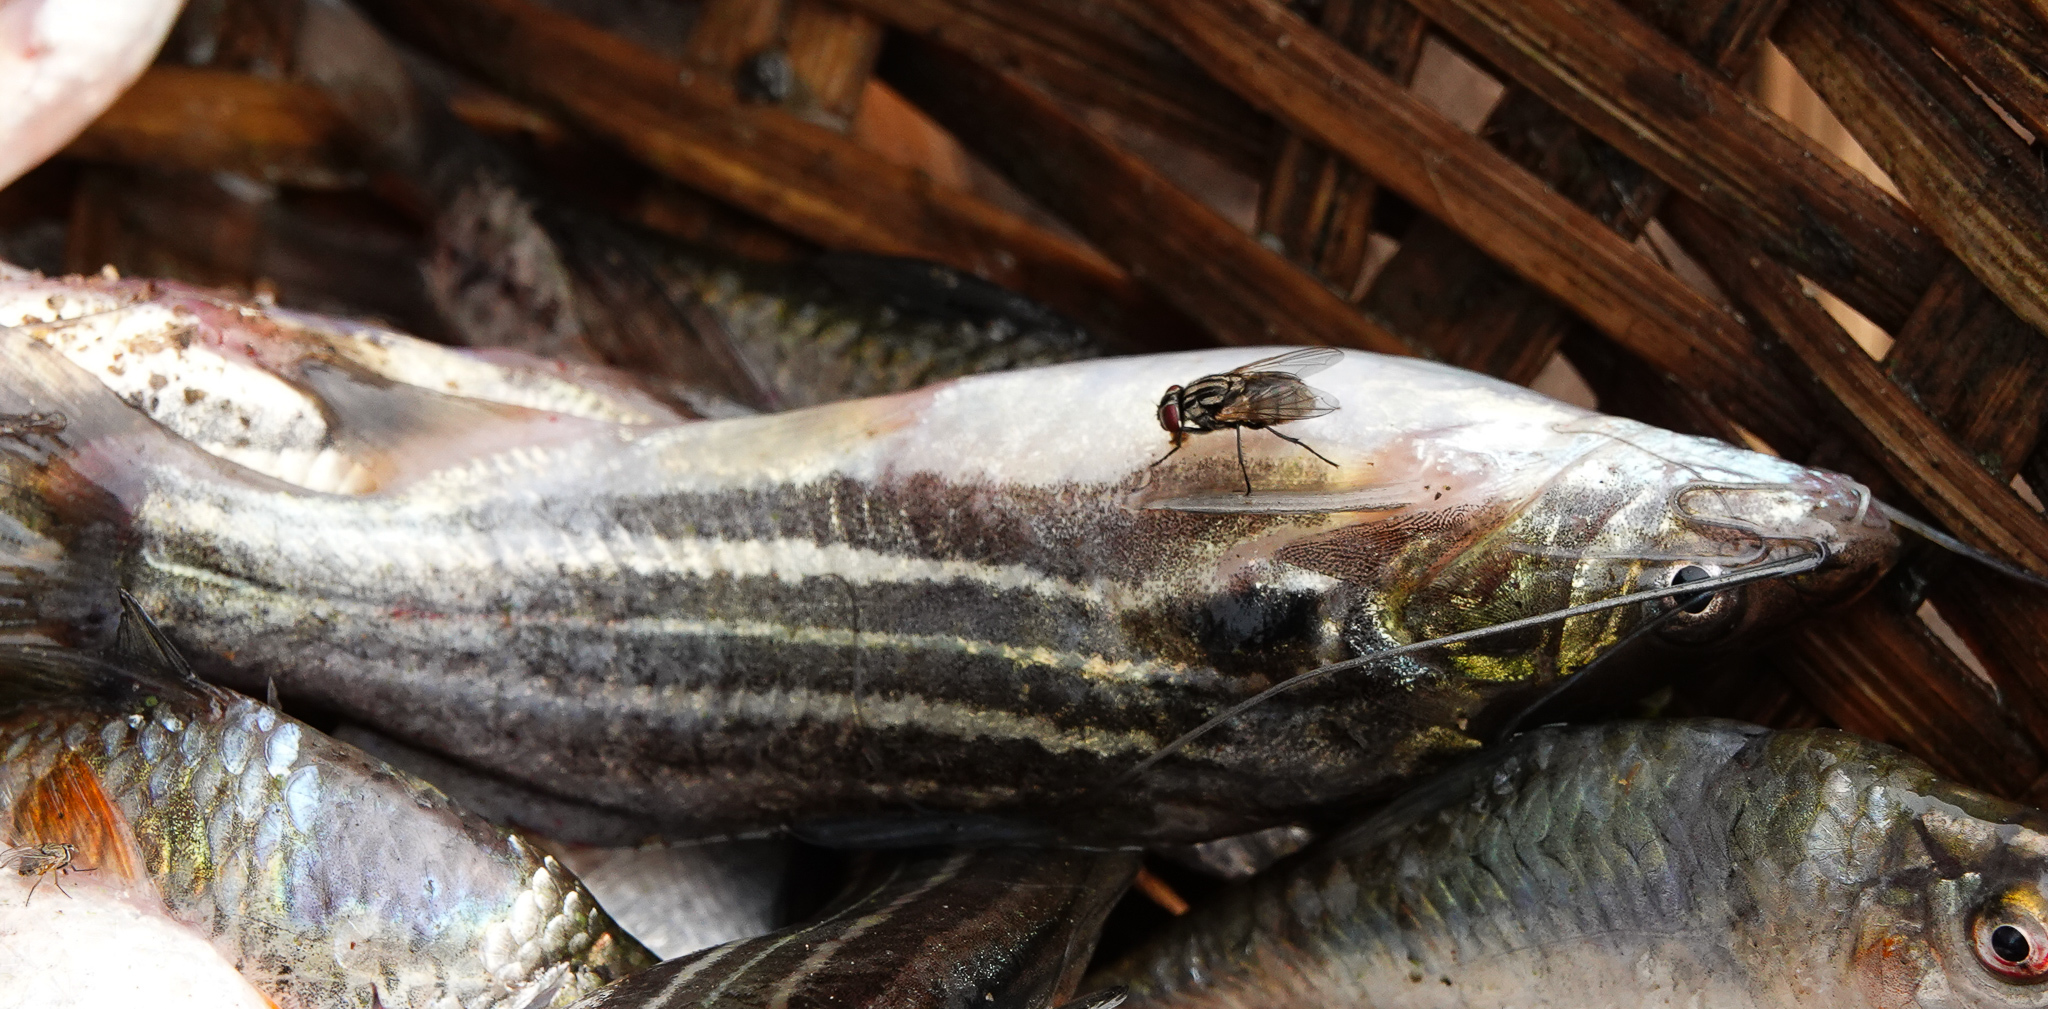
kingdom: Animalia
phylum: Chordata
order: Siluriformes
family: Bagridae
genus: Mystus
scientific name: Mystus tengara
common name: Stripped dwarf catfish
